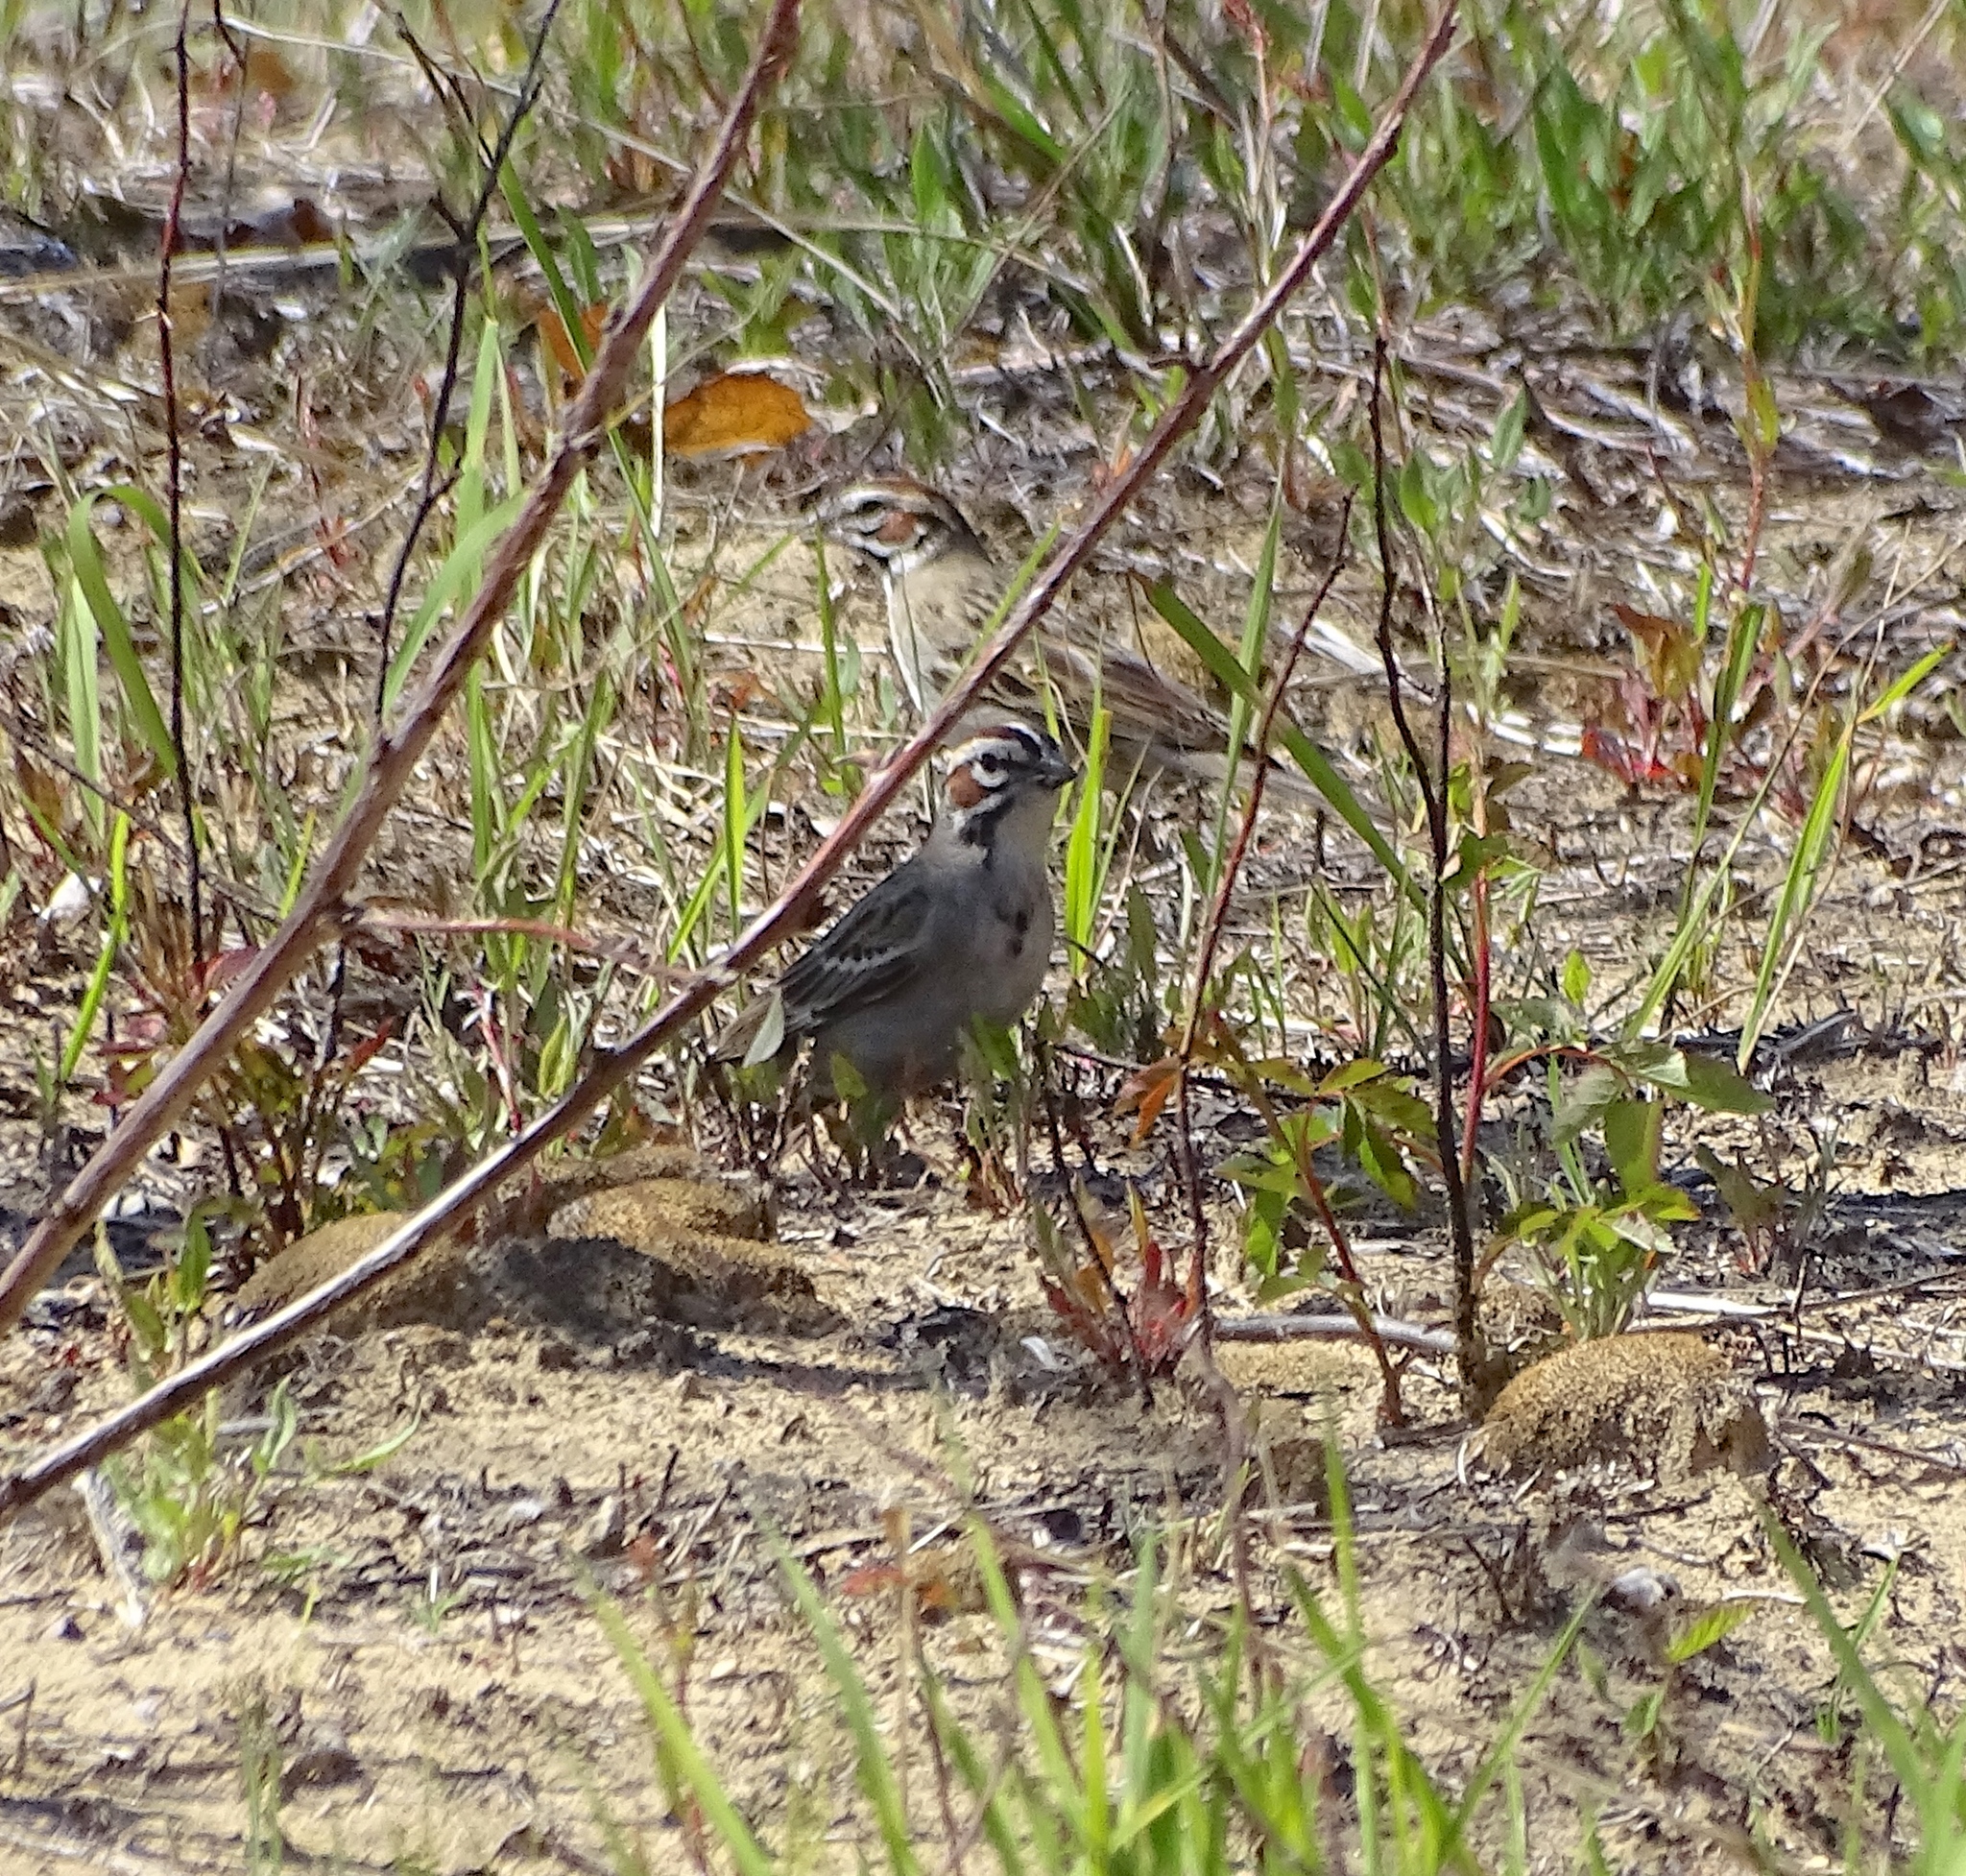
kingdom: Animalia
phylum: Chordata
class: Aves
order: Passeriformes
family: Passerellidae
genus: Chondestes
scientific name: Chondestes grammacus
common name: Lark sparrow
